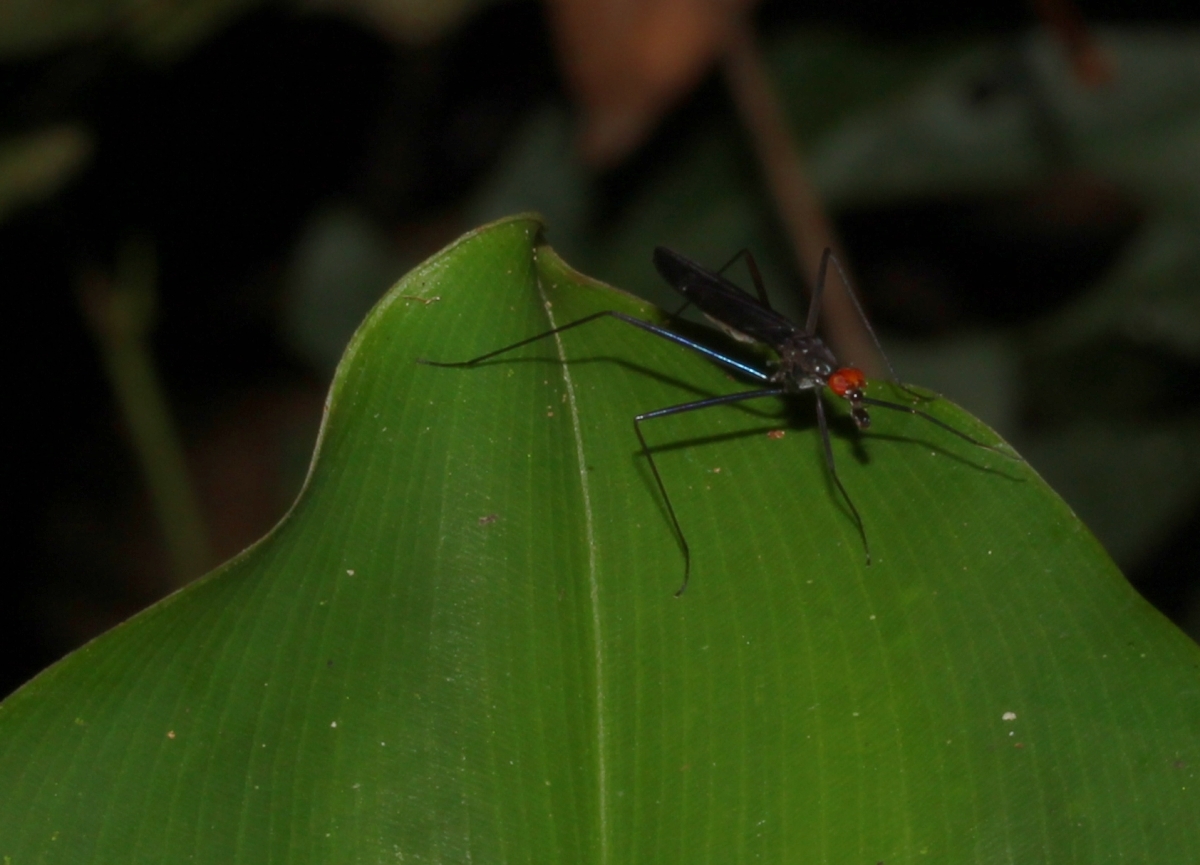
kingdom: Animalia
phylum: Arthropoda
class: Insecta
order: Diptera
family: Micropezidae
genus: Scipopus
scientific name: Scipopus
